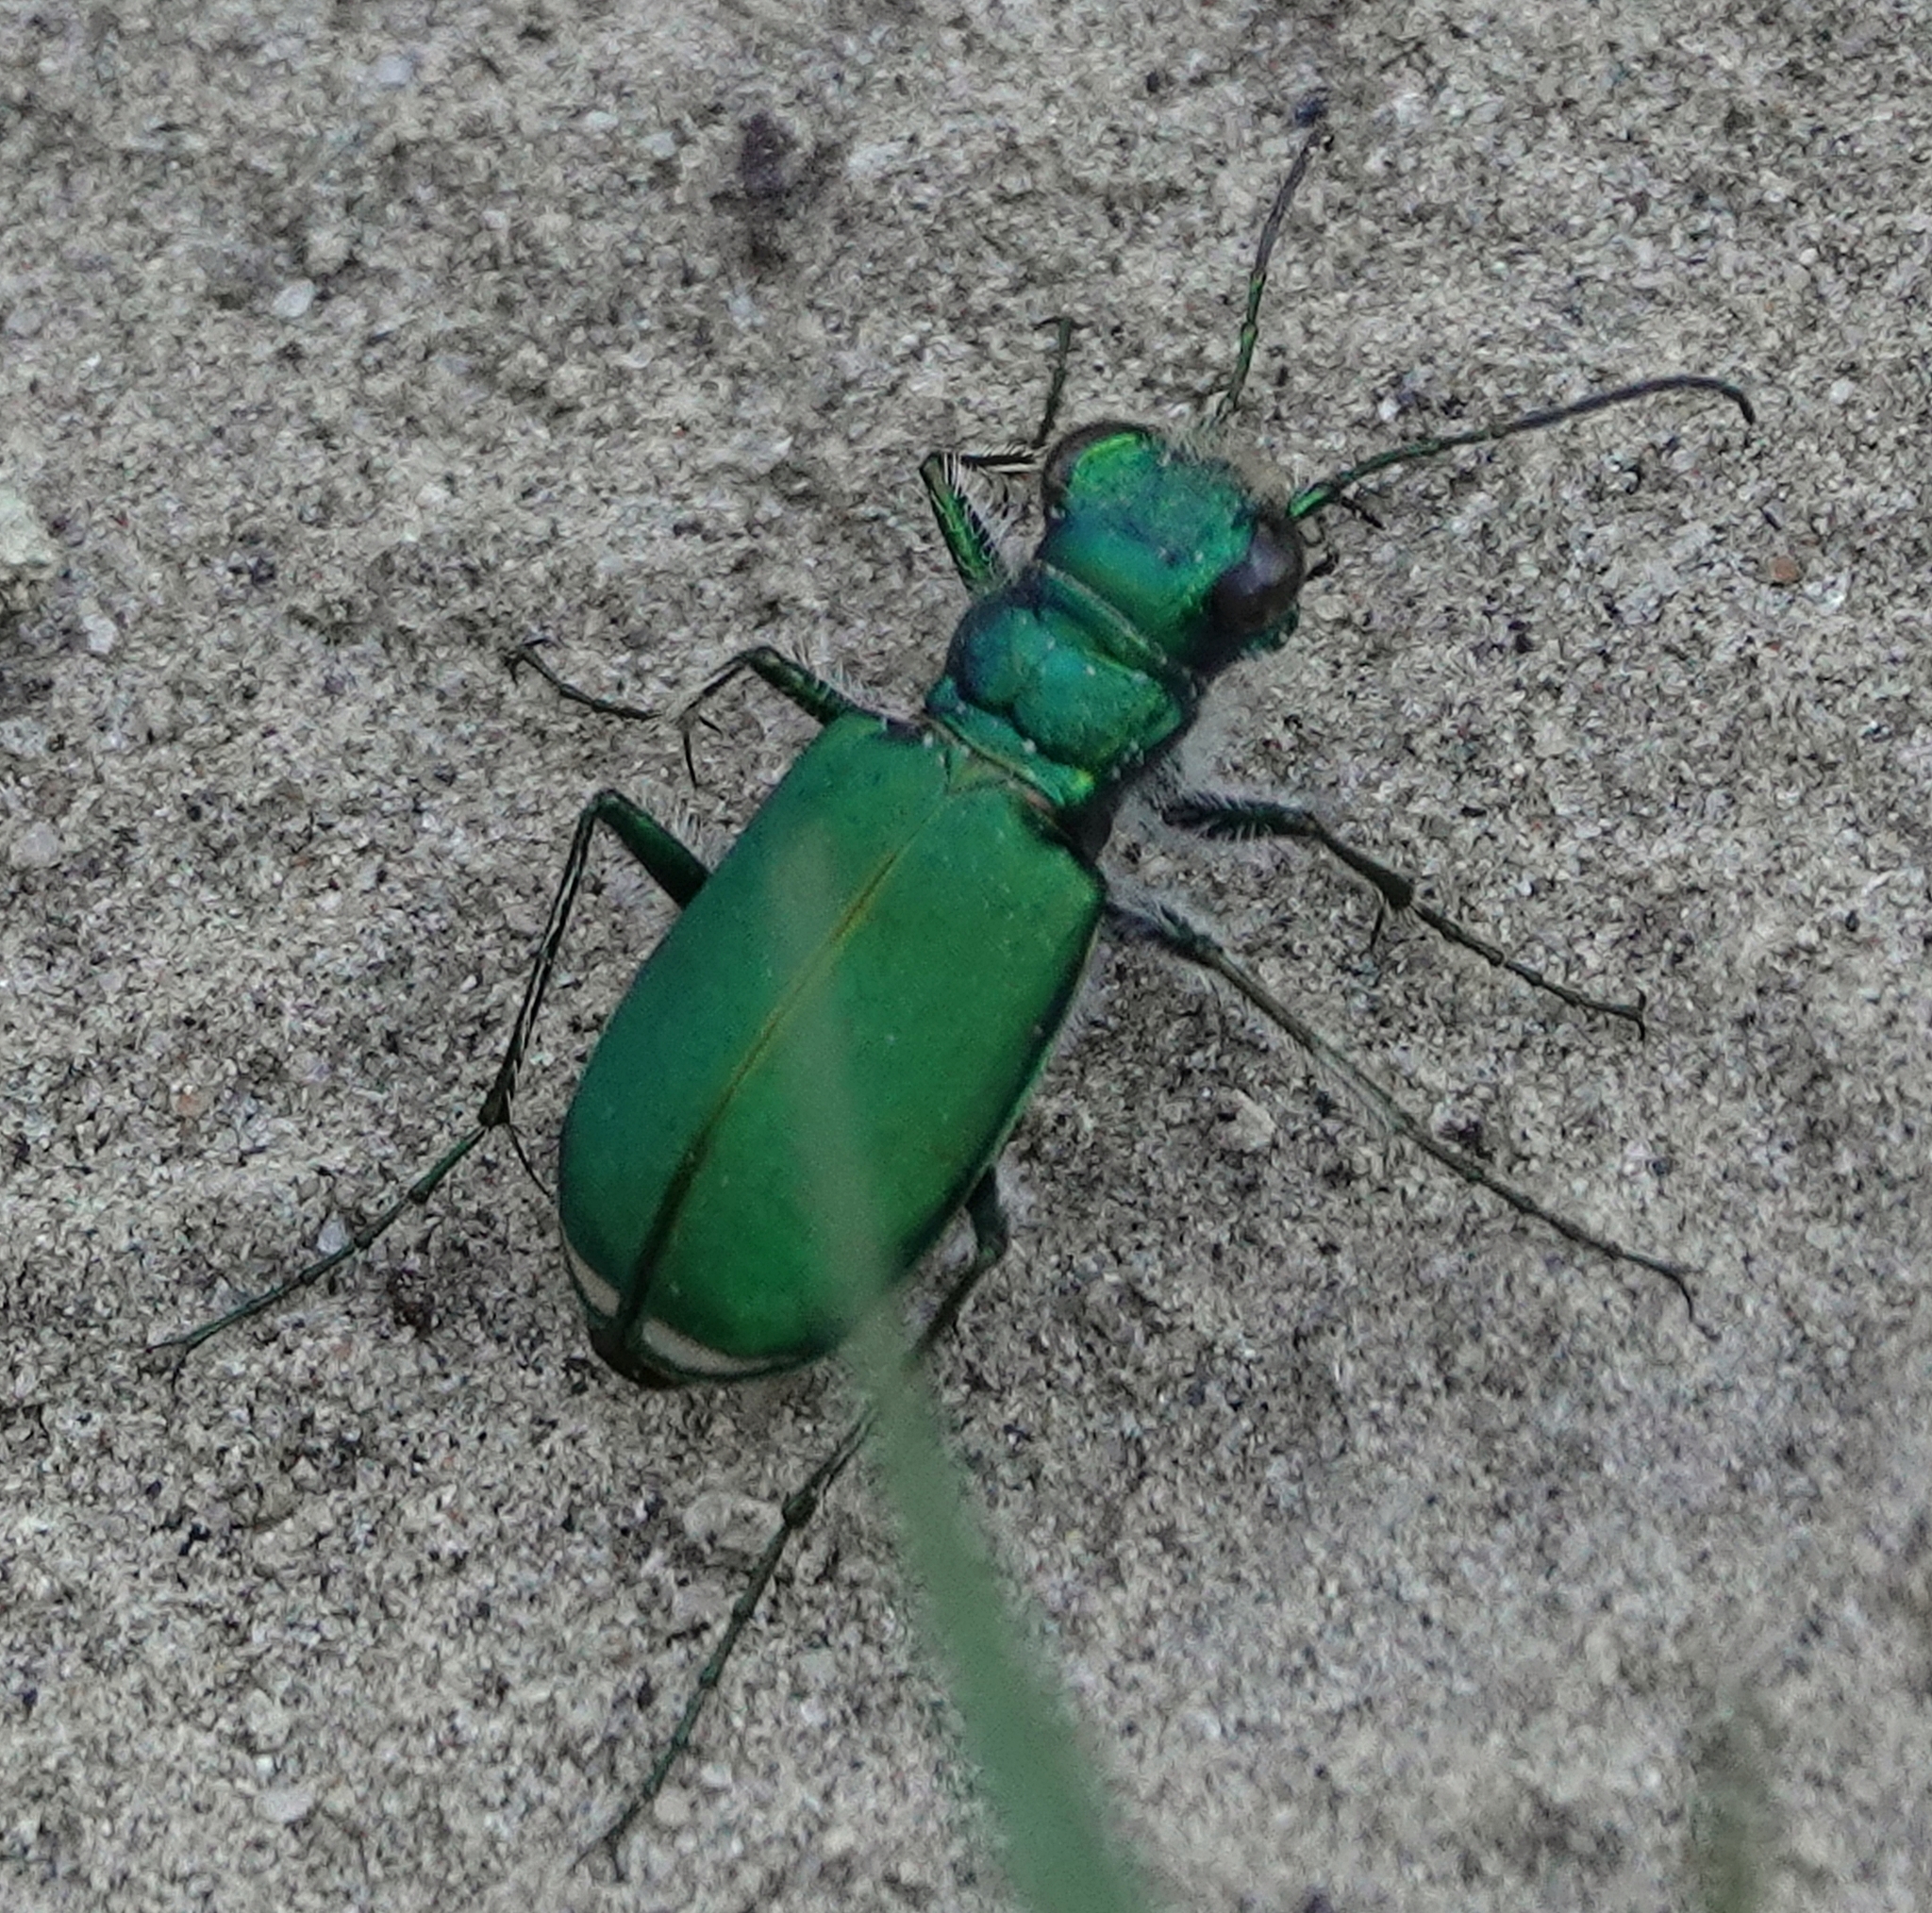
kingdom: Animalia
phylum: Arthropoda
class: Insecta
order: Coleoptera
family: Carabidae
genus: Cicindela
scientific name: Cicindela denverensis
